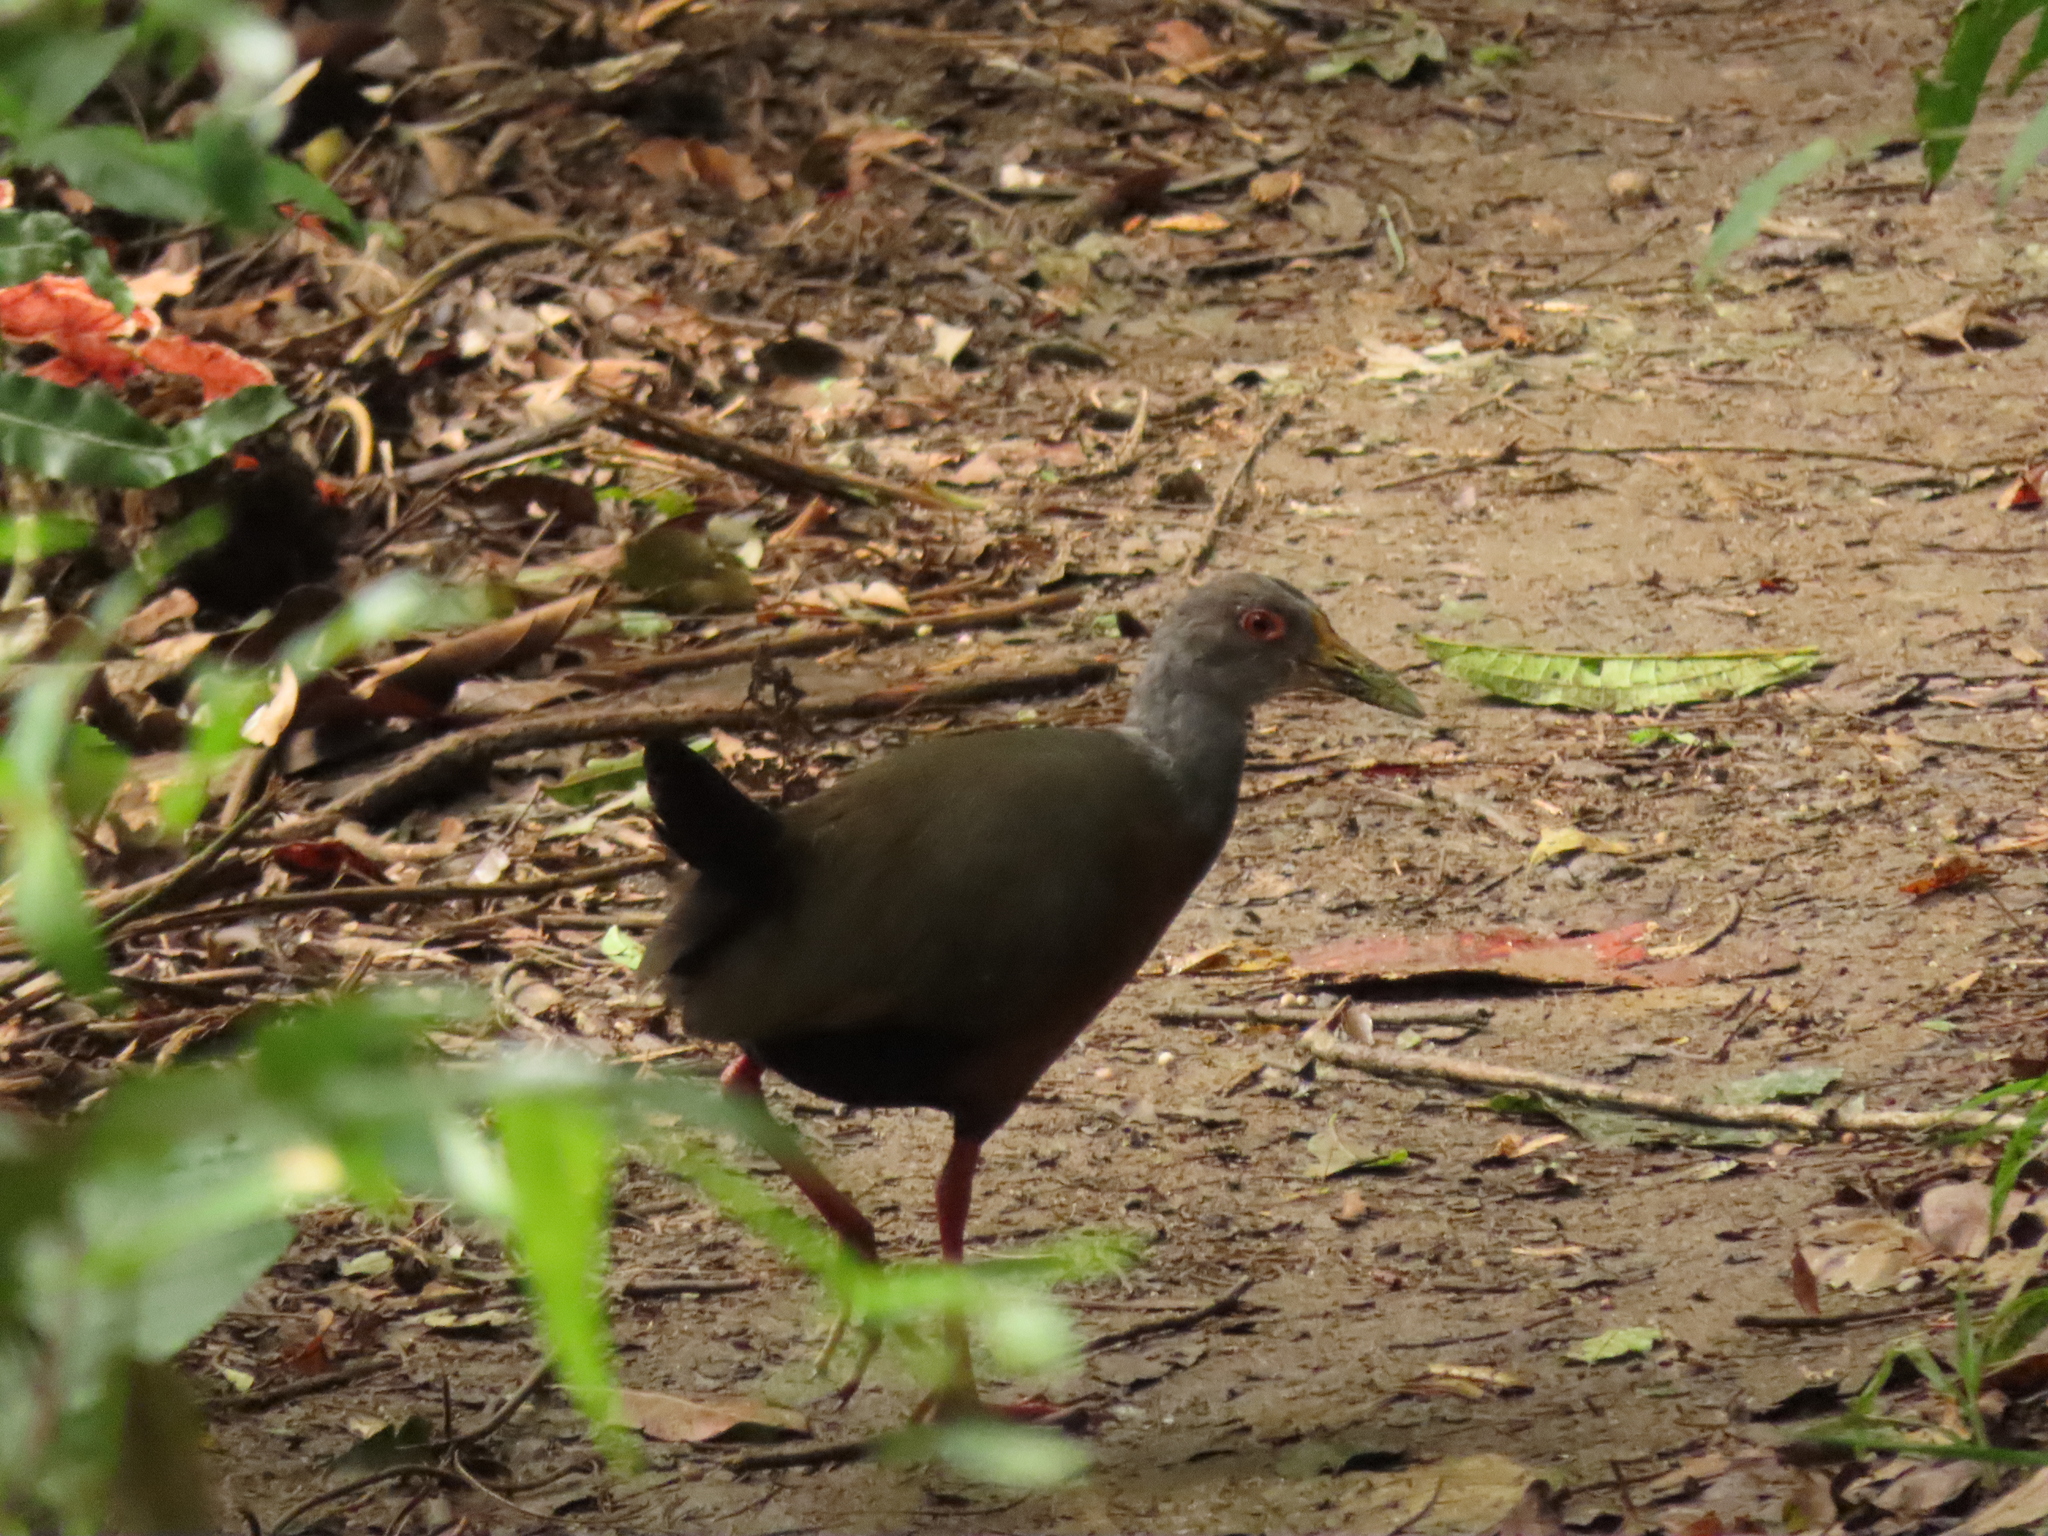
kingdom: Animalia
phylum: Chordata
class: Aves
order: Gruiformes
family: Rallidae
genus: Aramides
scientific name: Aramides cajanea
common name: Gray-necked wood-rail
